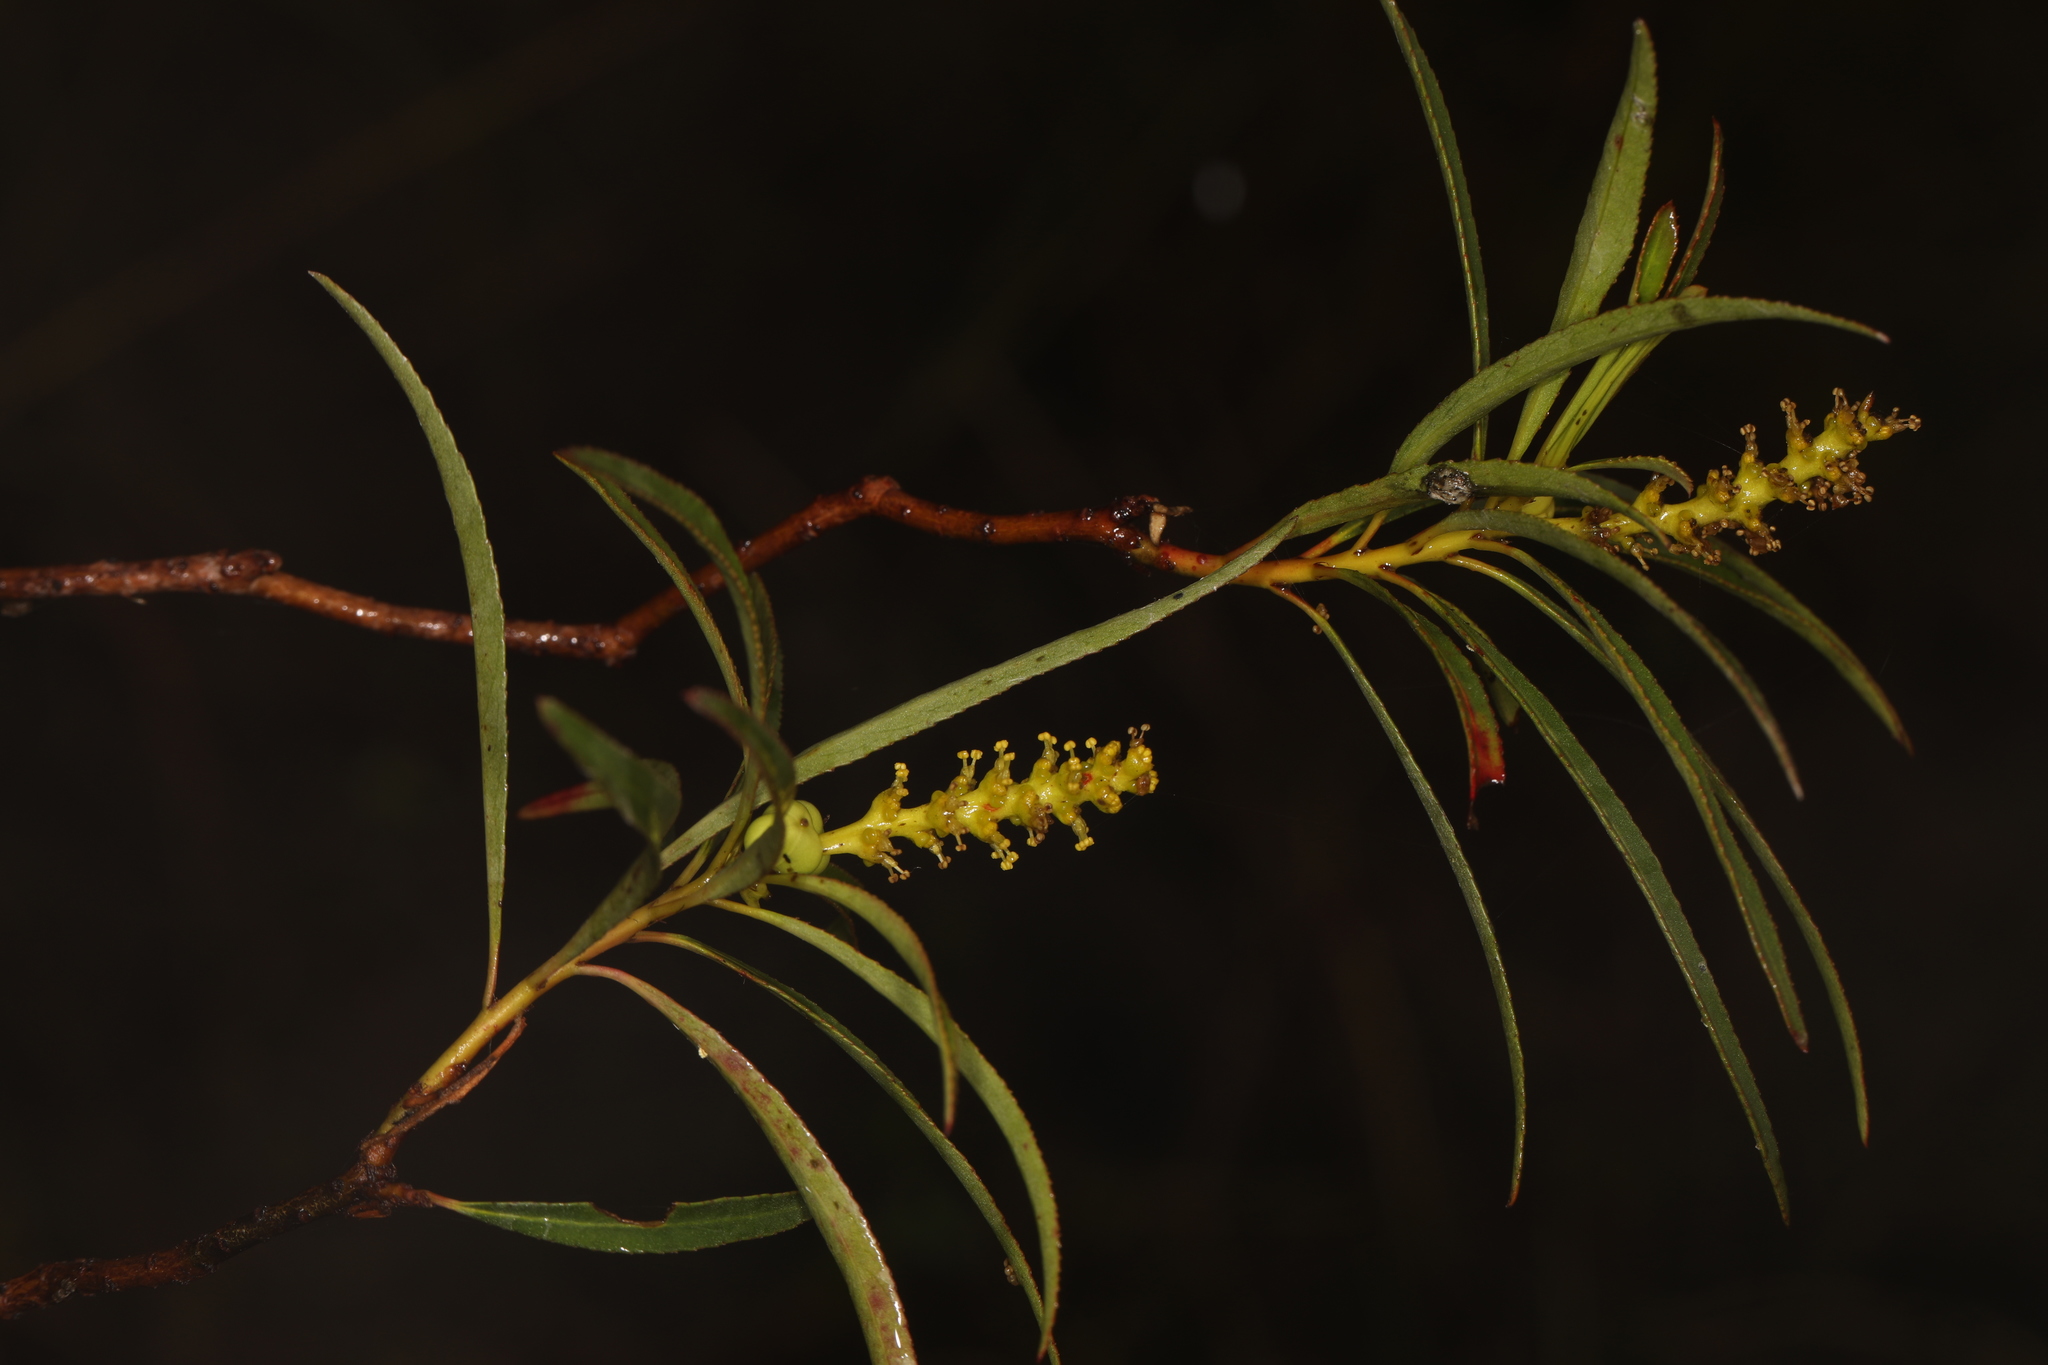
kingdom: Plantae
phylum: Tracheophyta
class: Magnoliopsida
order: Malpighiales
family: Euphorbiaceae
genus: Stillingia
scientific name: Stillingia aquatica
